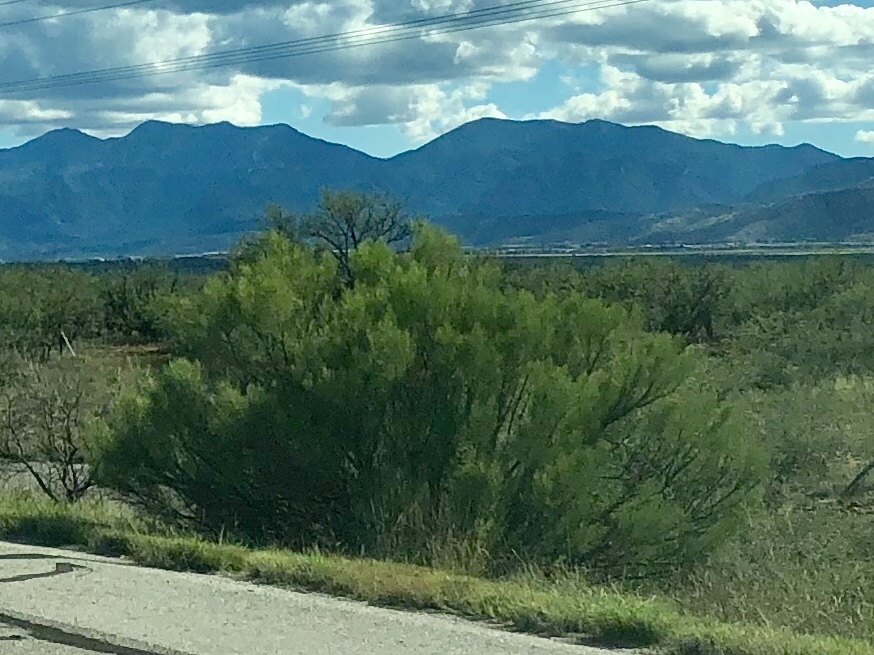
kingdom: Plantae
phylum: Tracheophyta
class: Magnoliopsida
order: Asterales
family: Asteraceae
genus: Baccharis
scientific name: Baccharis sarothroides
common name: Desert-broom
